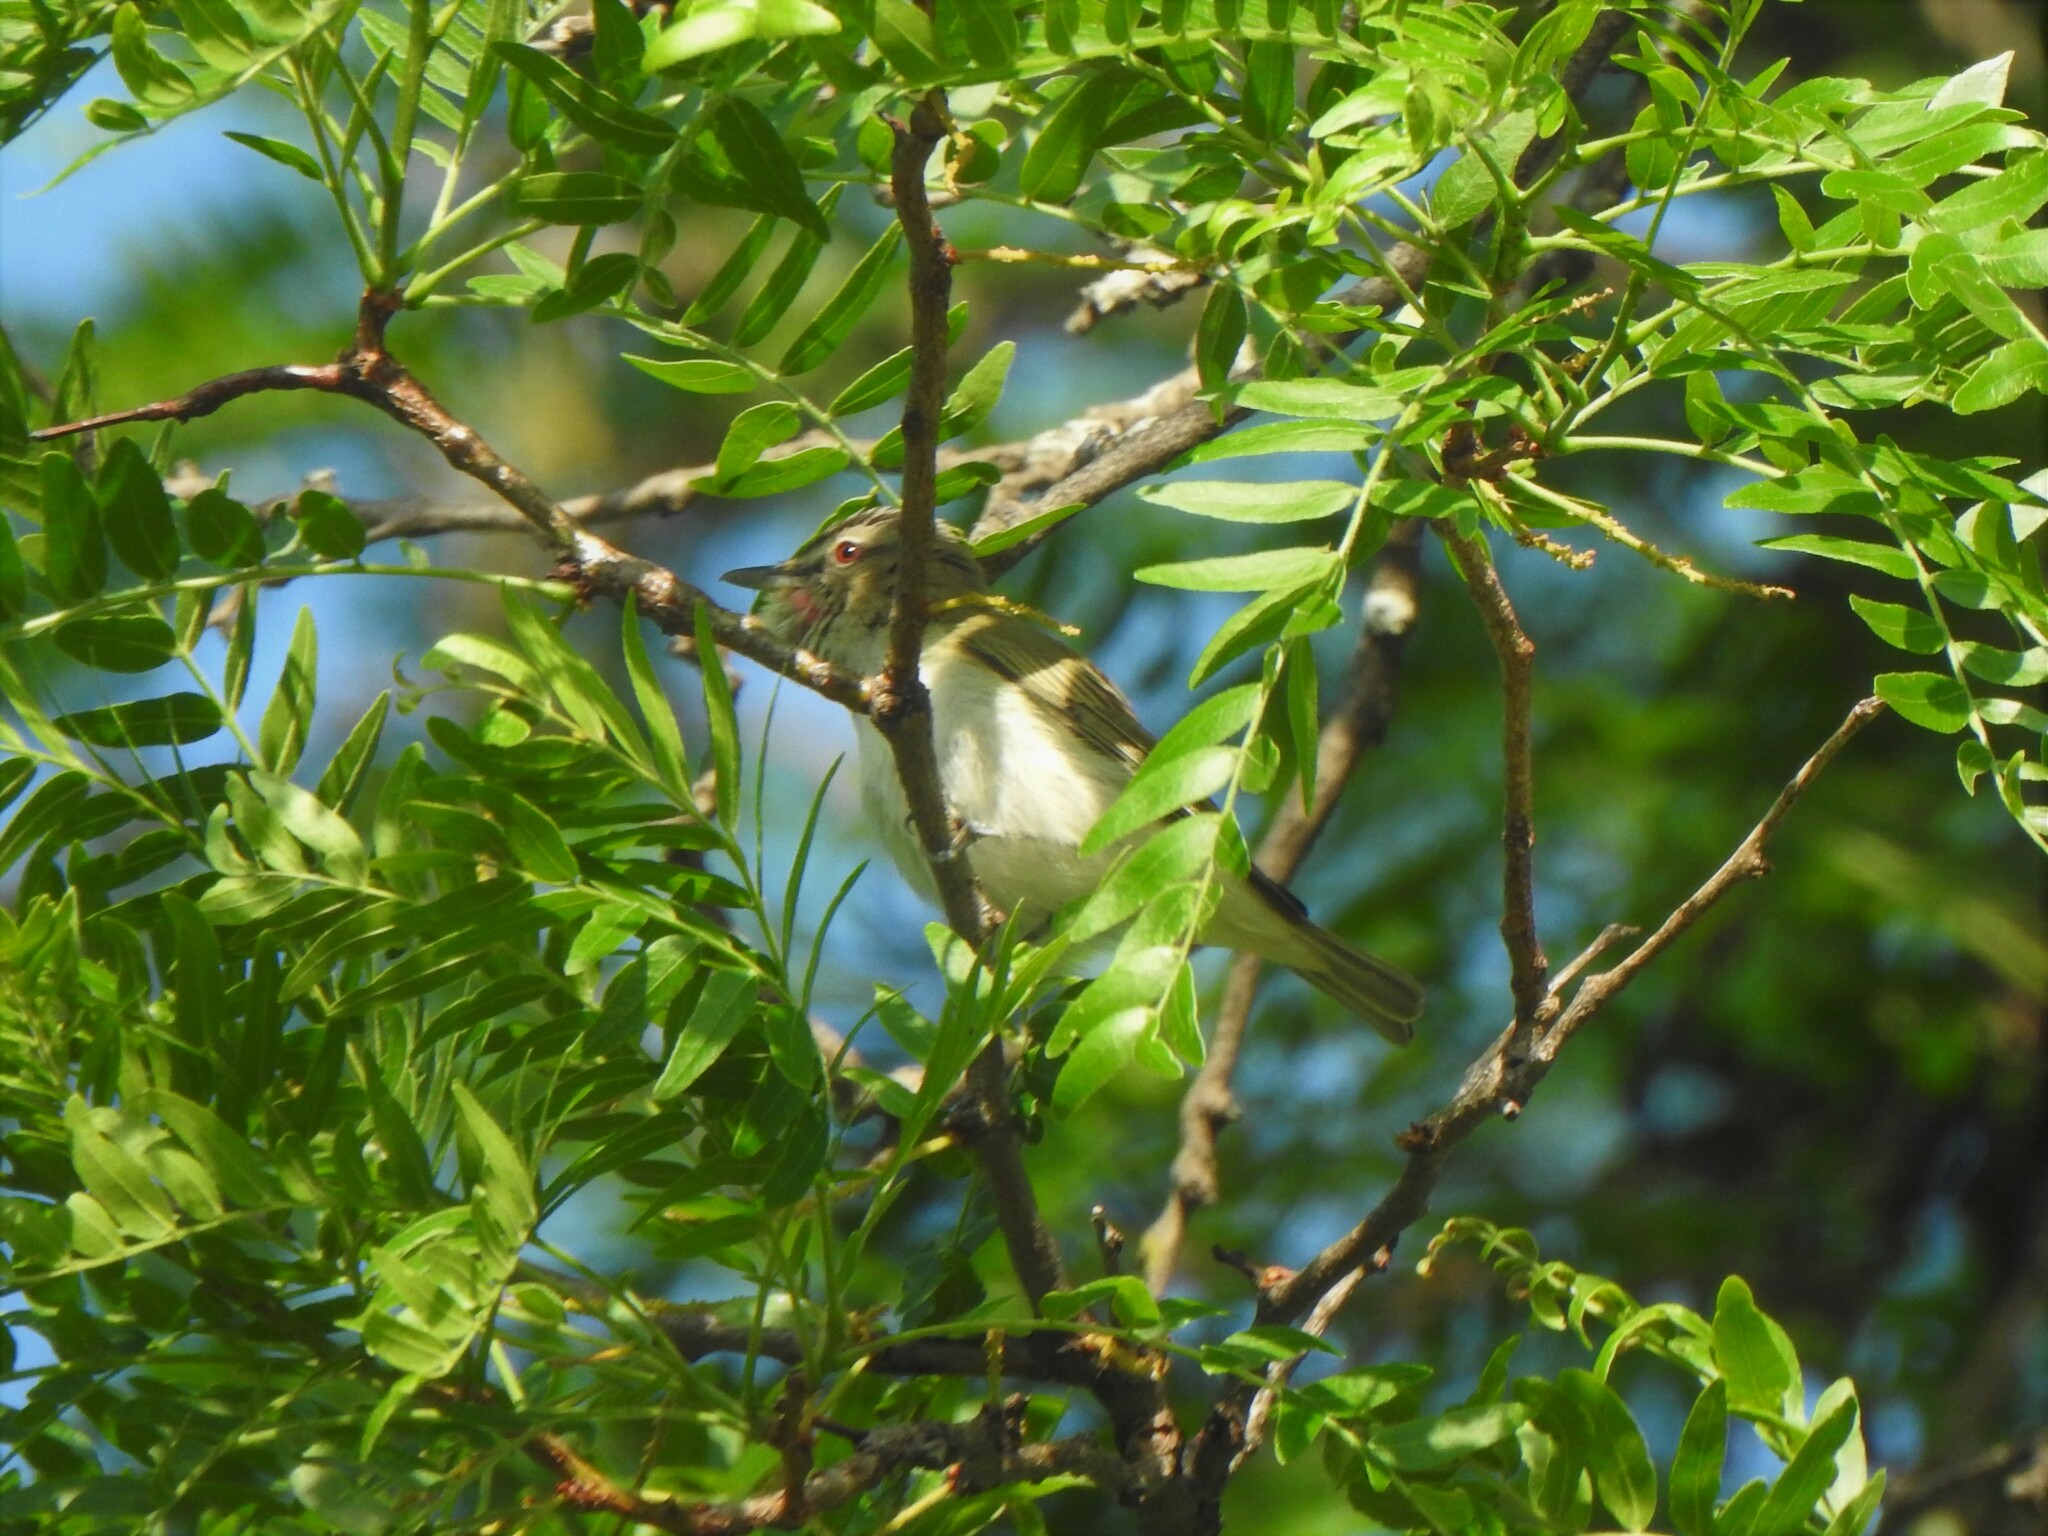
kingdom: Animalia
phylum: Chordata
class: Aves
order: Passeriformes
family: Vireonidae
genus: Vireo
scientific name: Vireo olivaceus
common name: Red-eyed vireo
